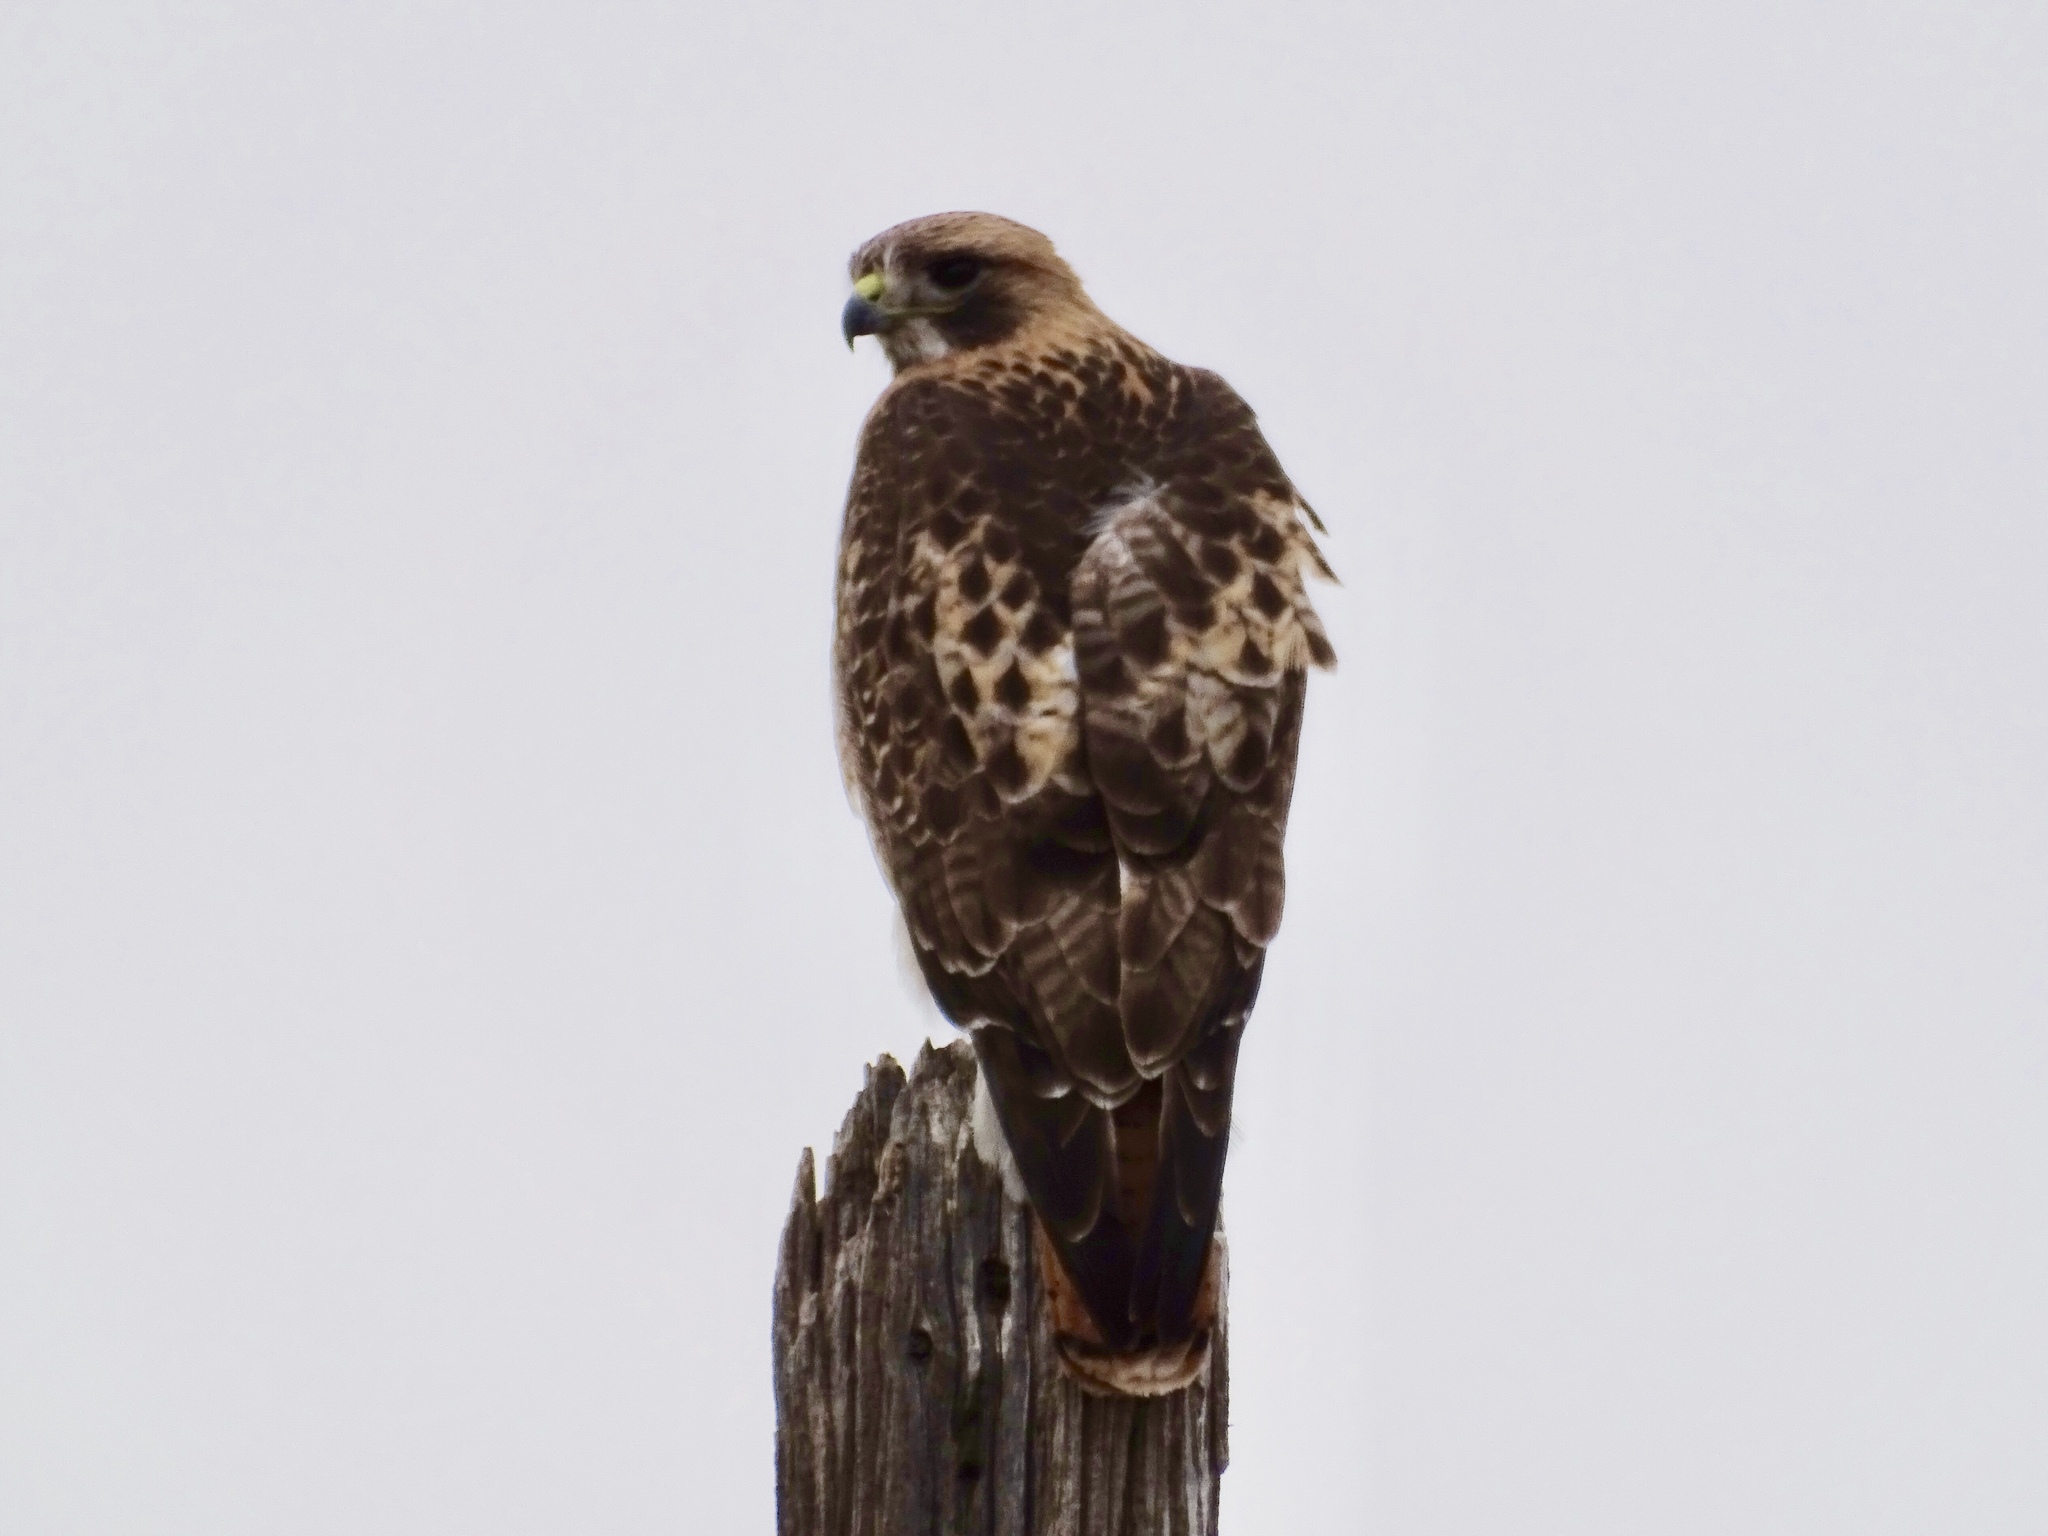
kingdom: Animalia
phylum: Chordata
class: Aves
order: Accipitriformes
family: Accipitridae
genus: Buteo
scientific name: Buteo jamaicensis
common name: Red-tailed hawk
